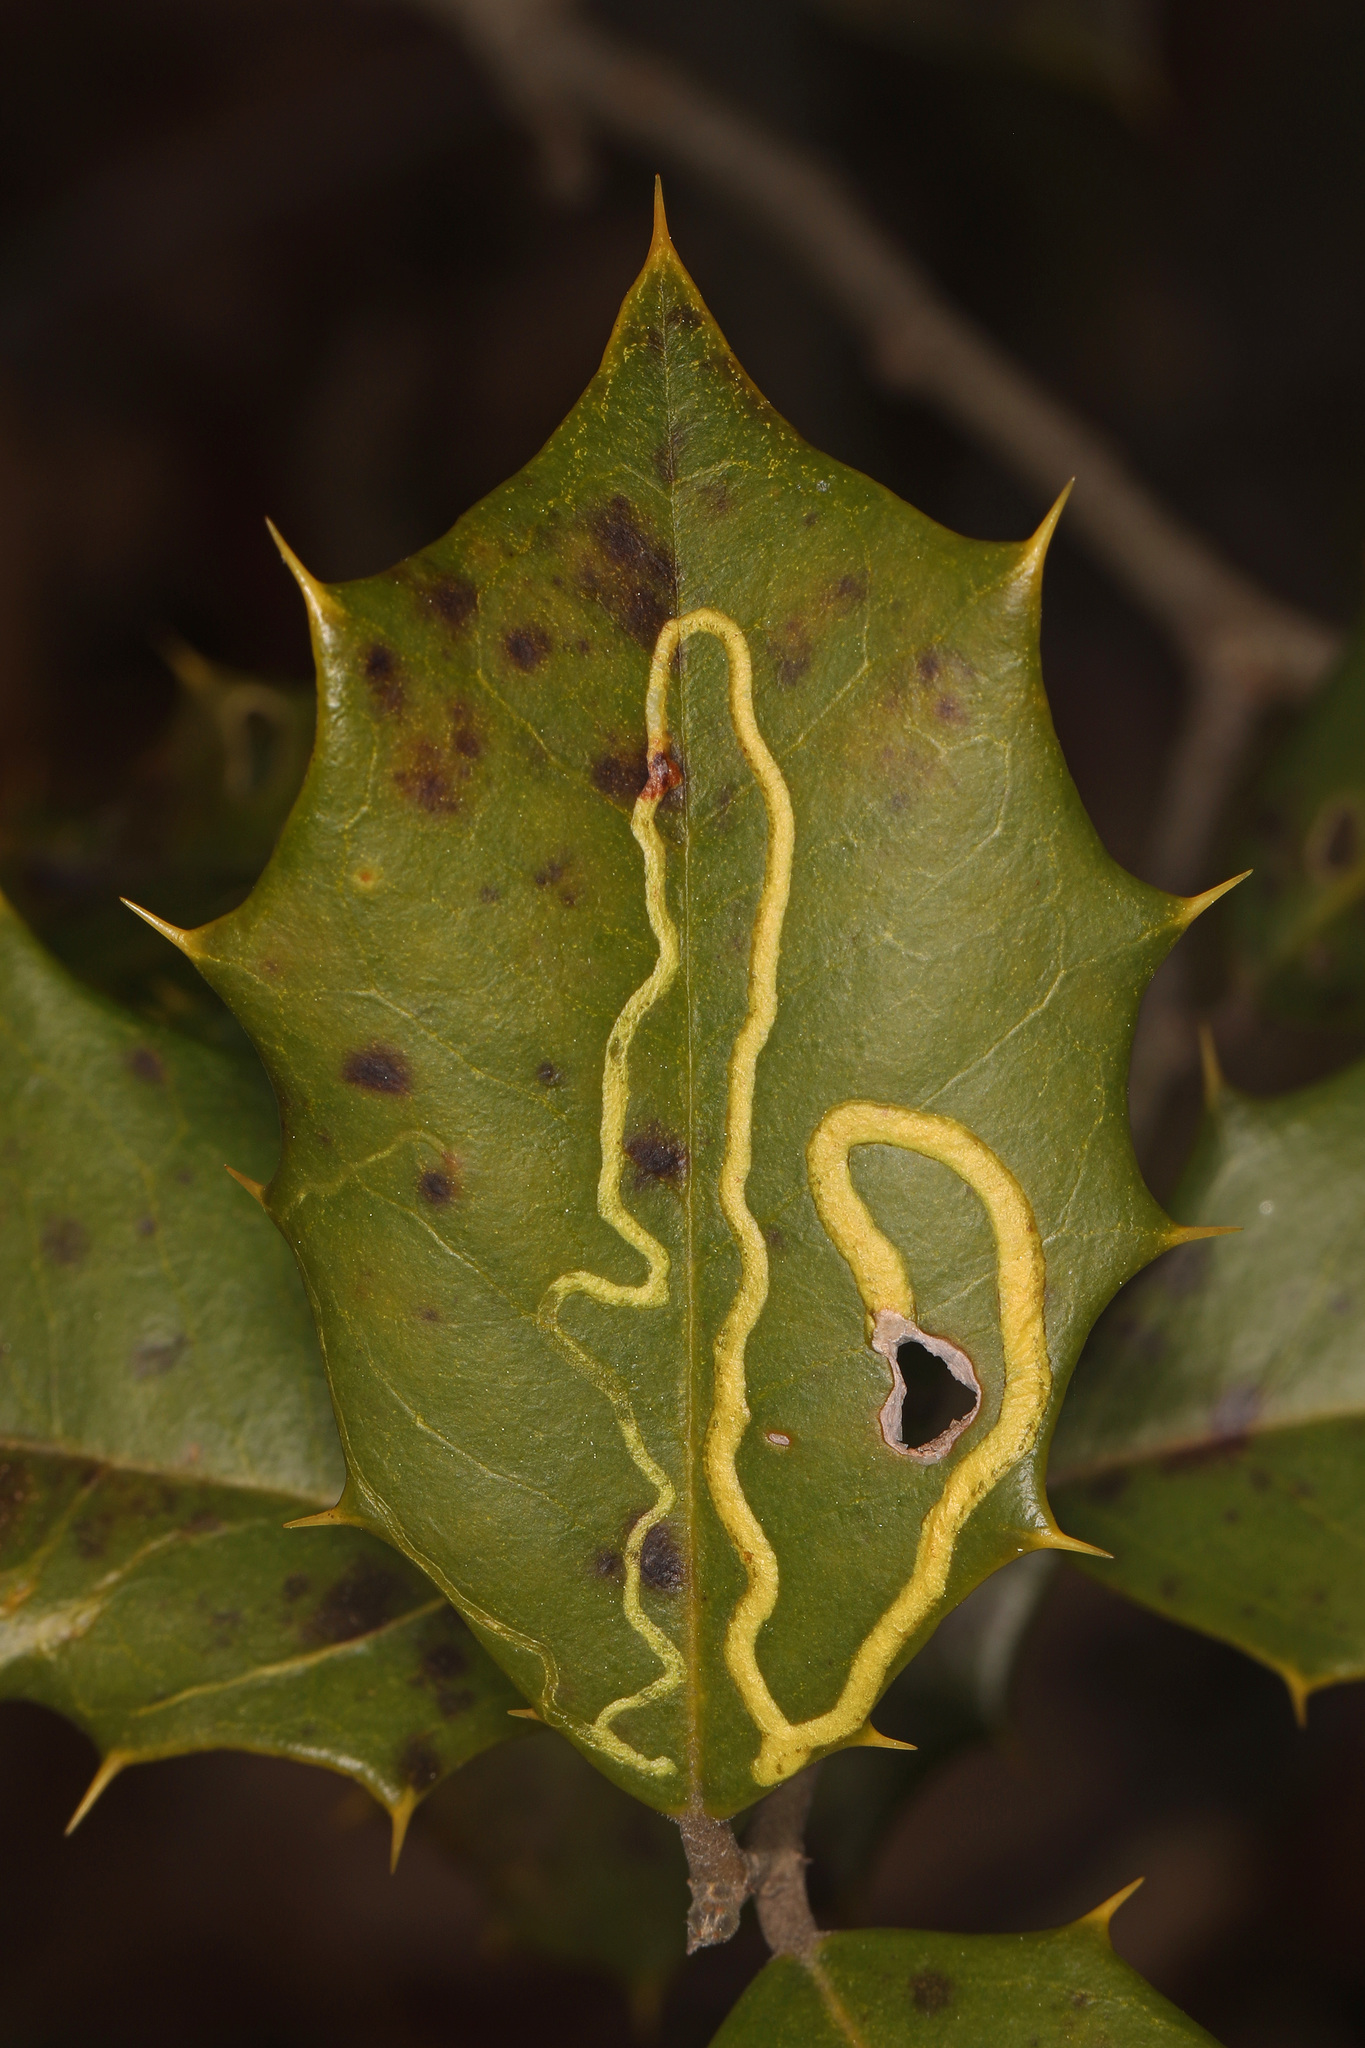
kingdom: Animalia
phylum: Arthropoda
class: Insecta
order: Diptera
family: Agromyzidae
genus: Phytomyza
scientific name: Phytomyza opacae
